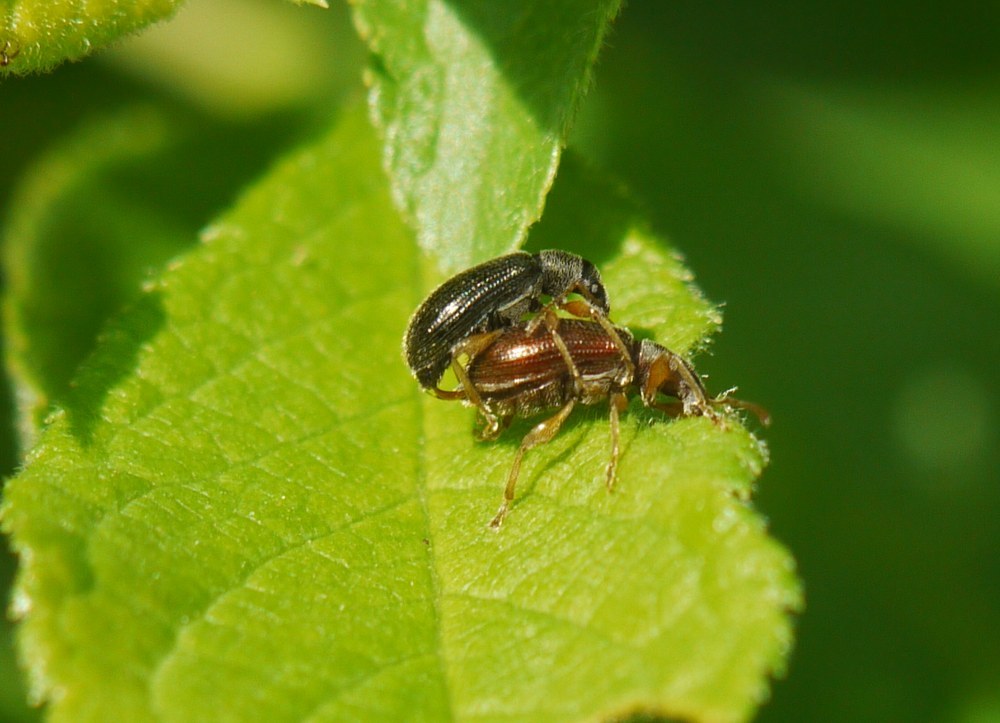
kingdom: Animalia
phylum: Arthropoda
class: Insecta
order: Coleoptera
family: Curculionidae
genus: Phyllobius
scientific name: Phyllobius oblongus
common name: Brown leaf weevil
